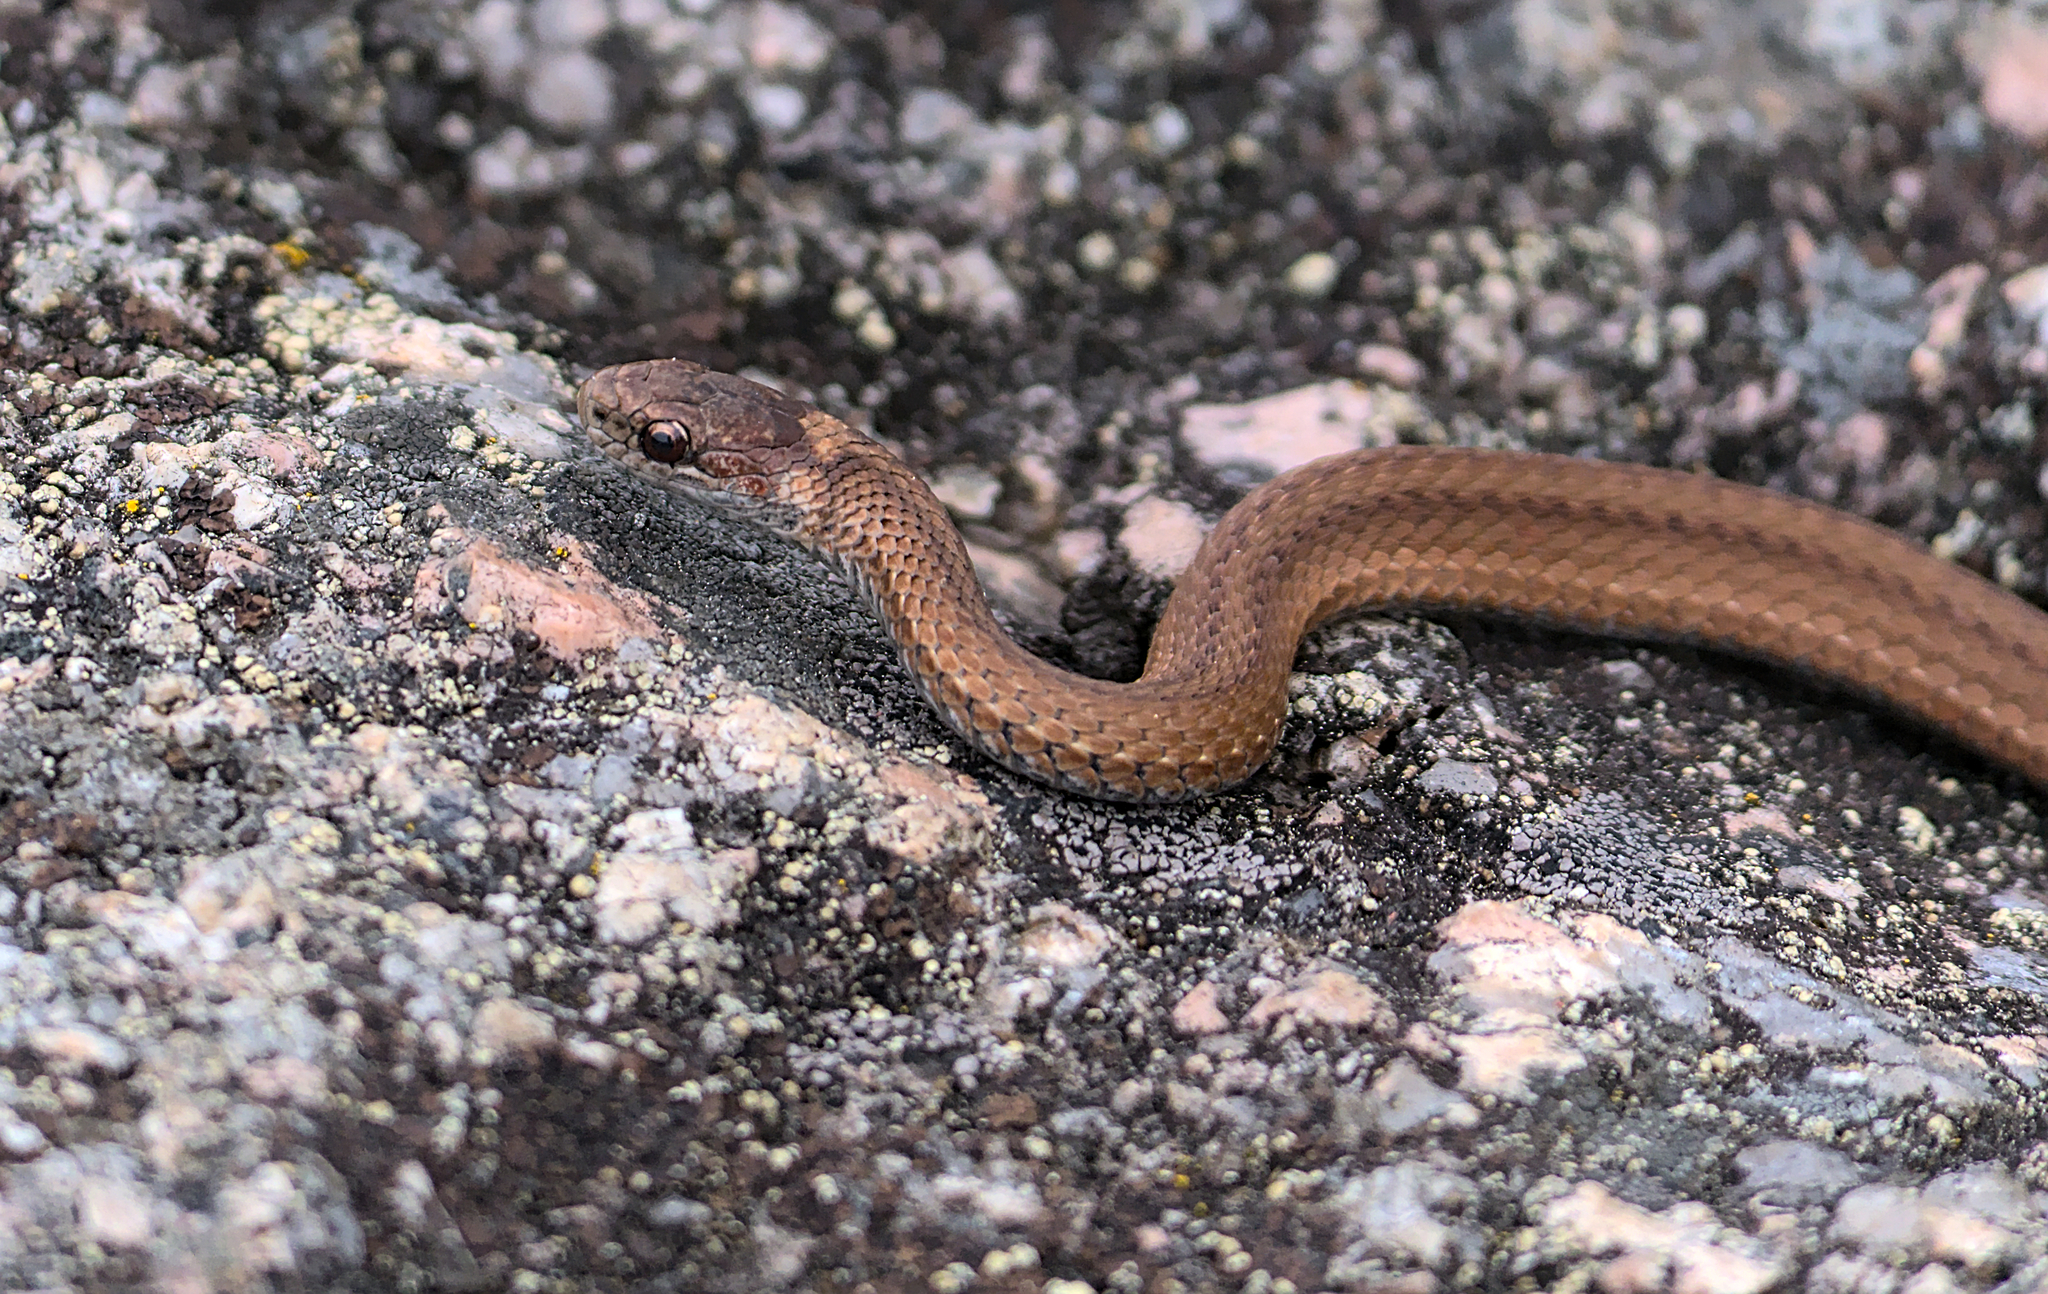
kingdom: Animalia
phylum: Chordata
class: Squamata
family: Colubridae
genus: Storeria
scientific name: Storeria occipitomaculata
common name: Redbelly snake
